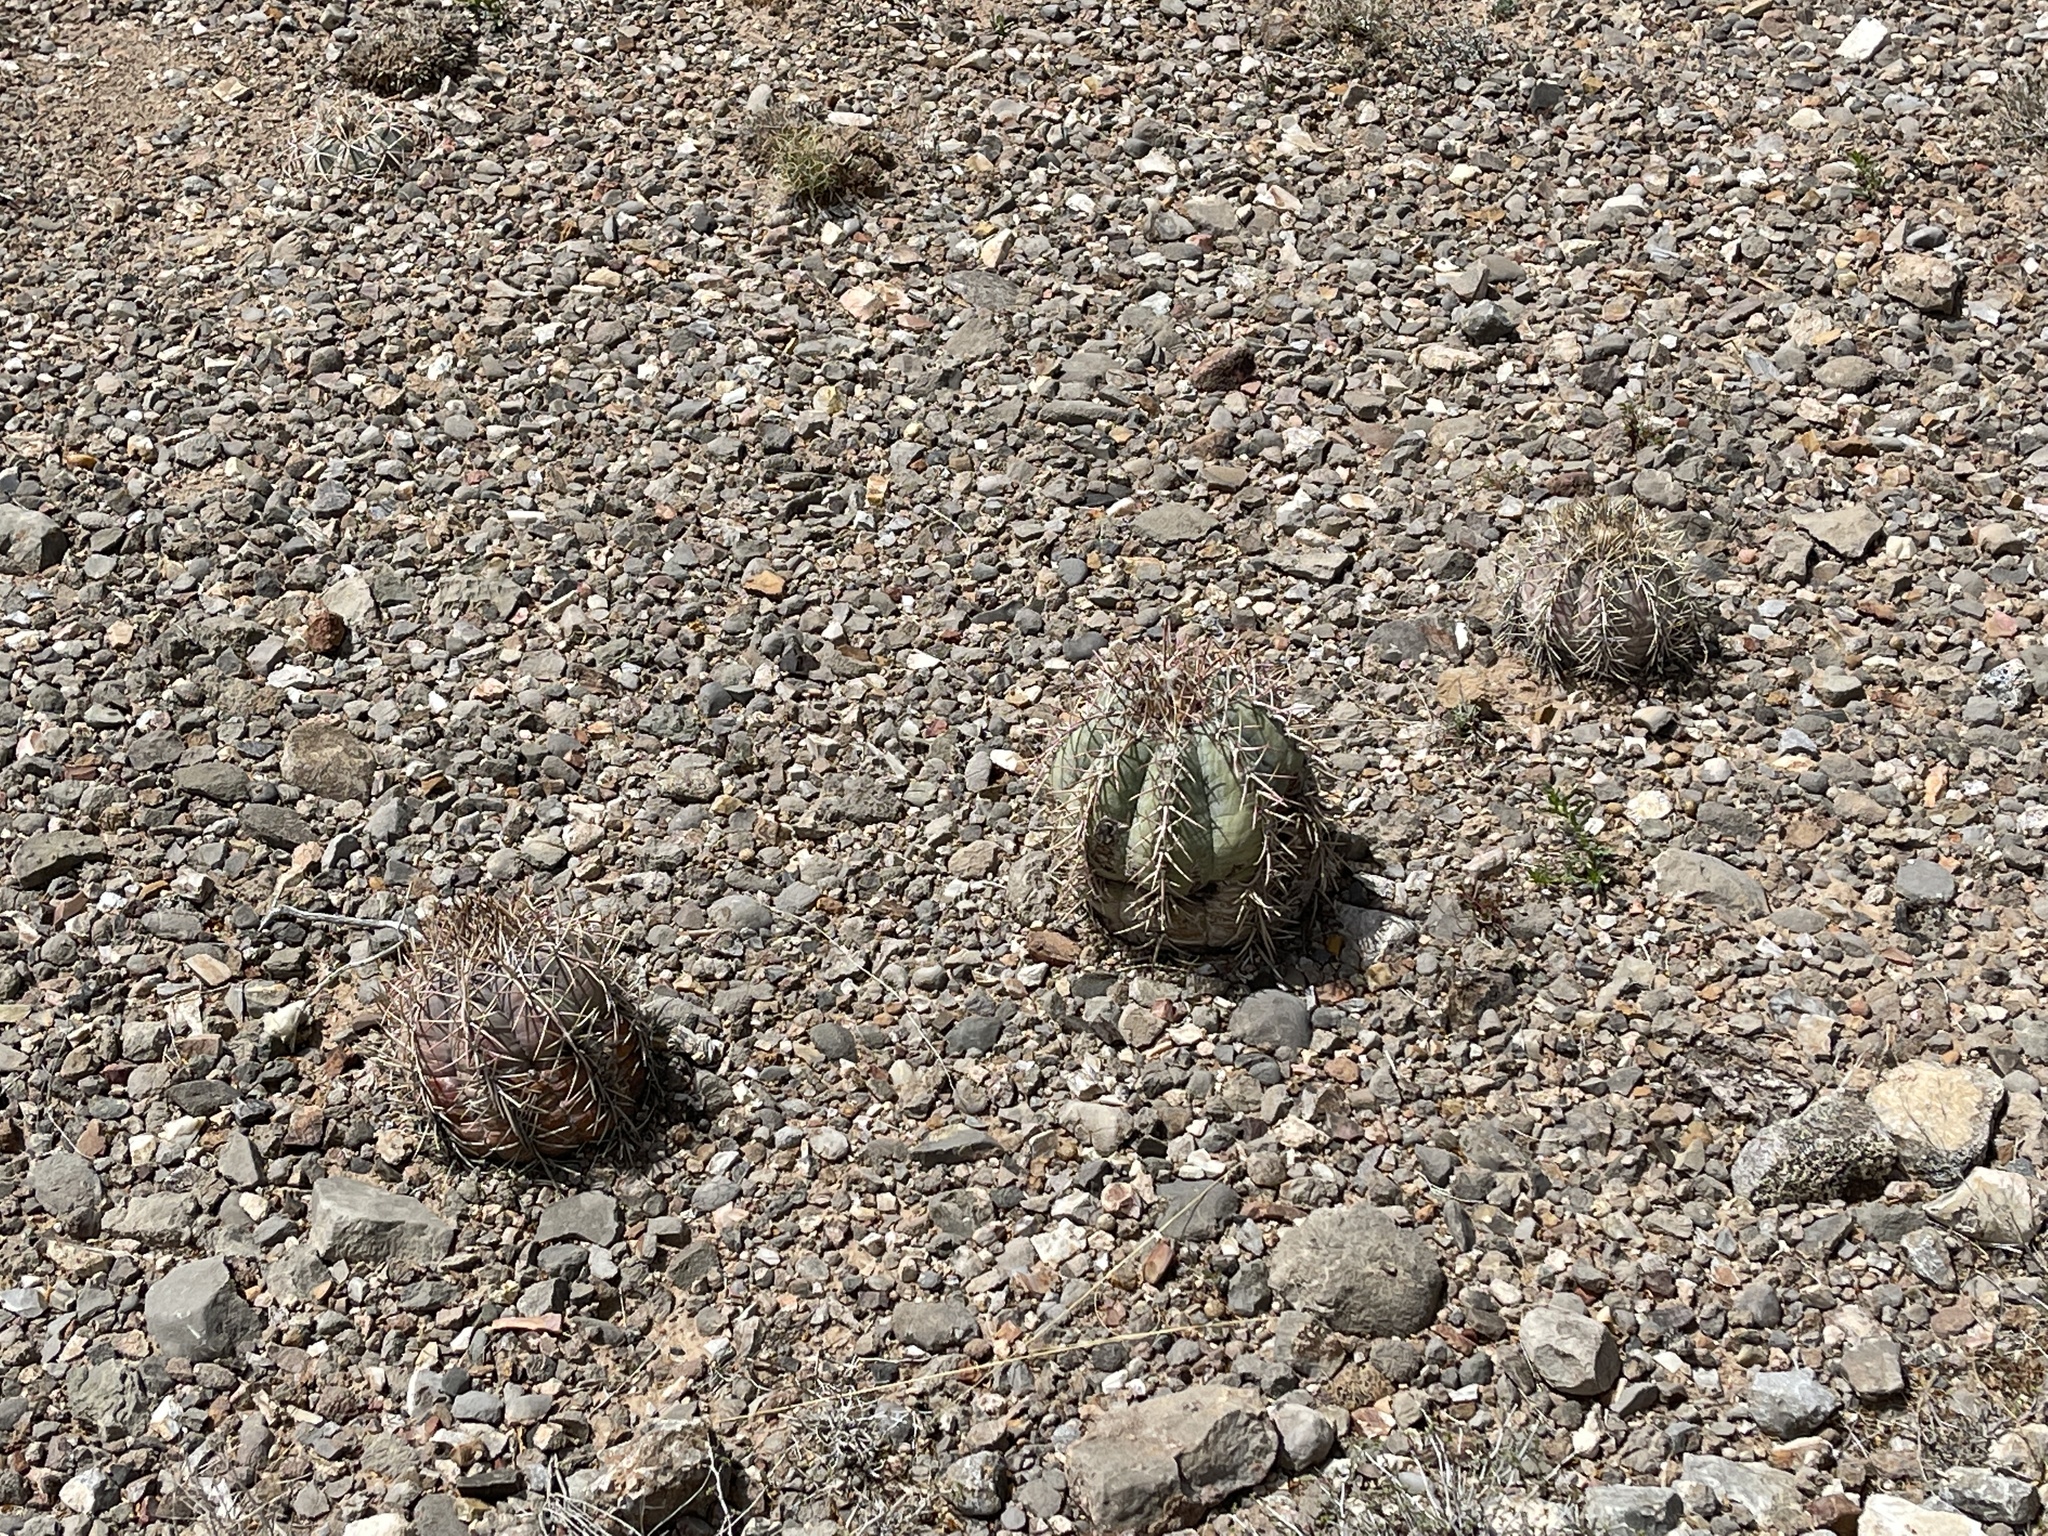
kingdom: Plantae
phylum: Tracheophyta
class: Magnoliopsida
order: Caryophyllales
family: Cactaceae
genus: Echinocactus
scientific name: Echinocactus horizonthalonius
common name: Devilshead
